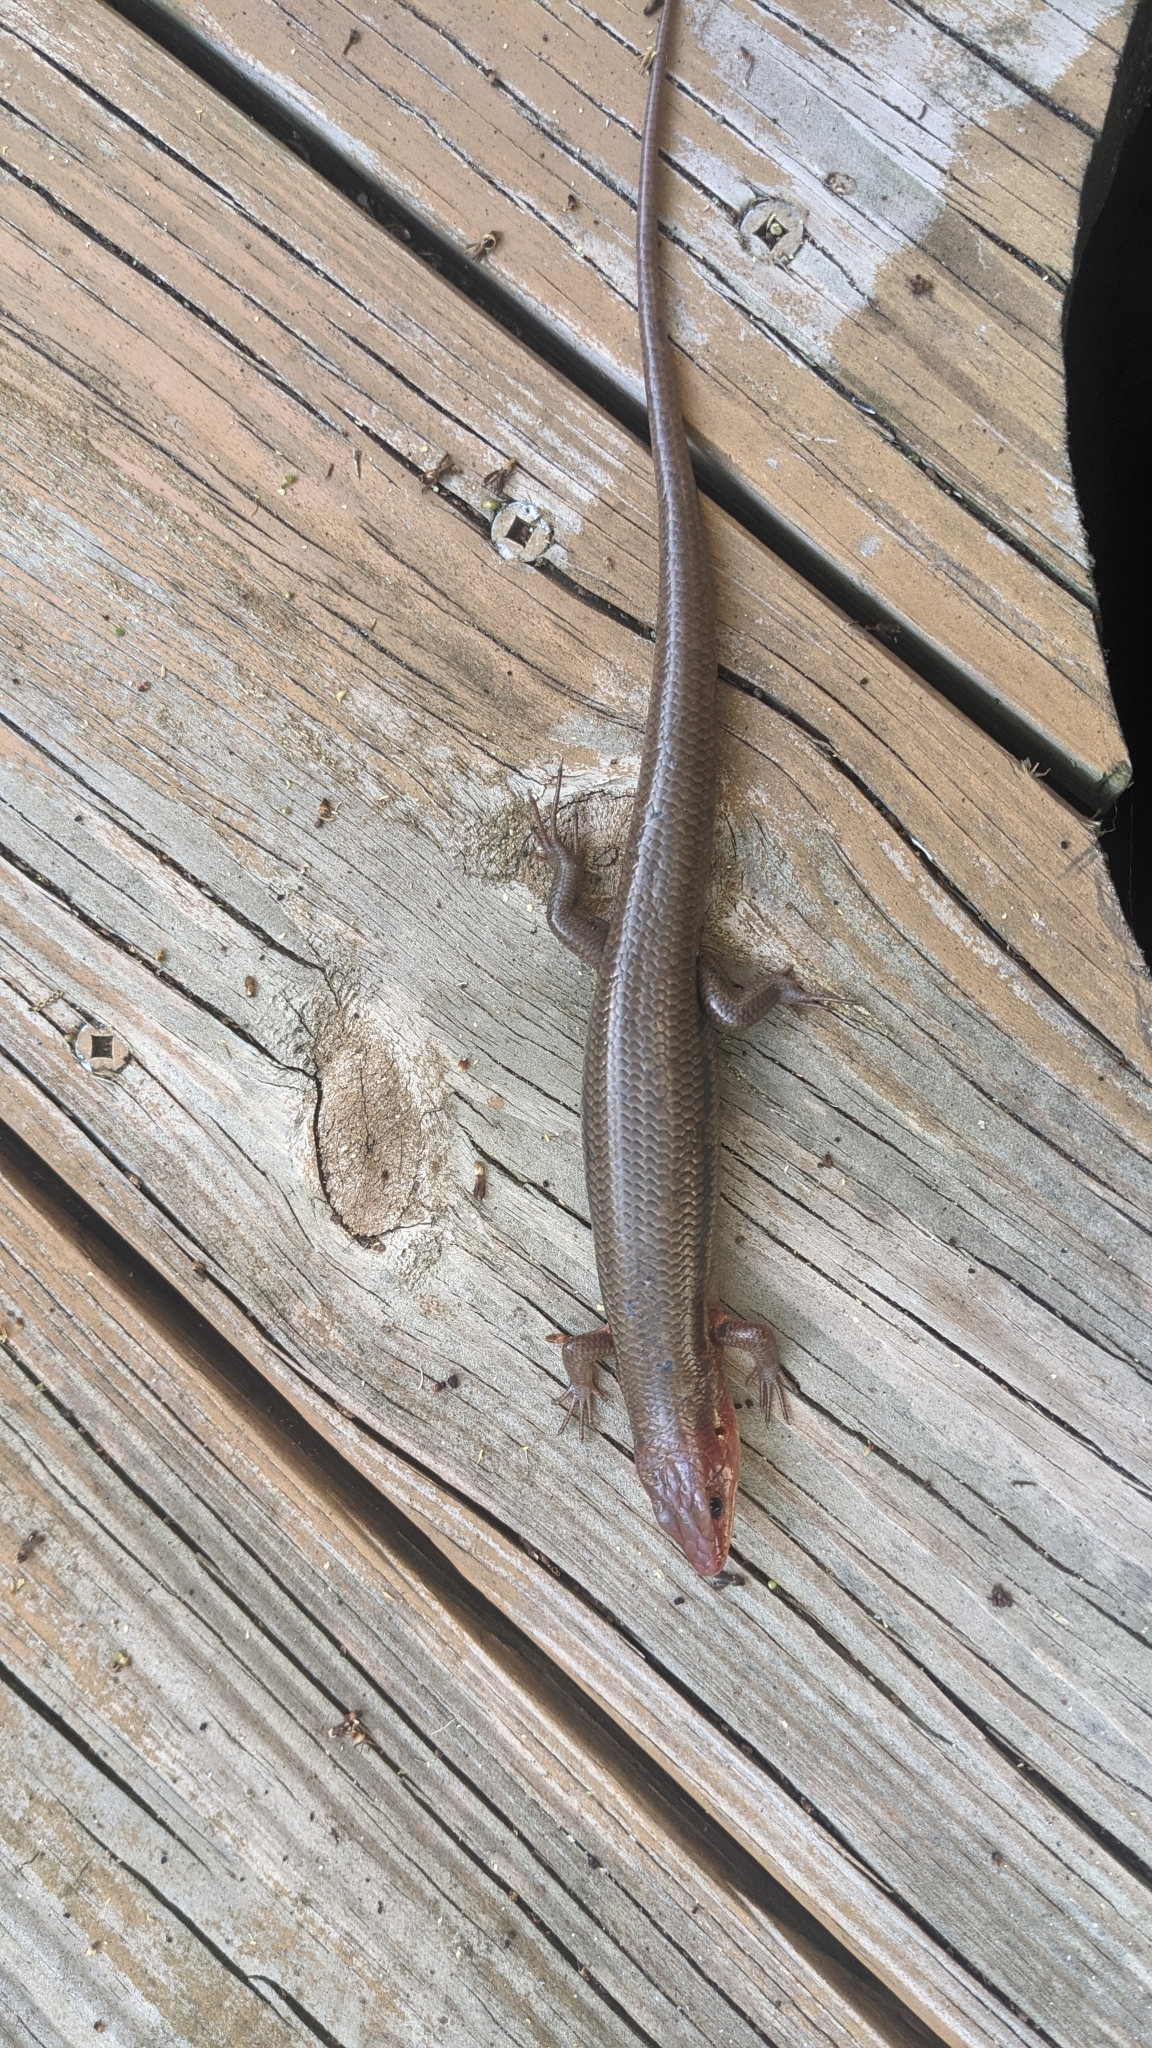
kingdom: Animalia
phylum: Chordata
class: Squamata
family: Scincidae
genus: Plestiodon
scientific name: Plestiodon inexpectatus
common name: Southeastern five-lined skink
